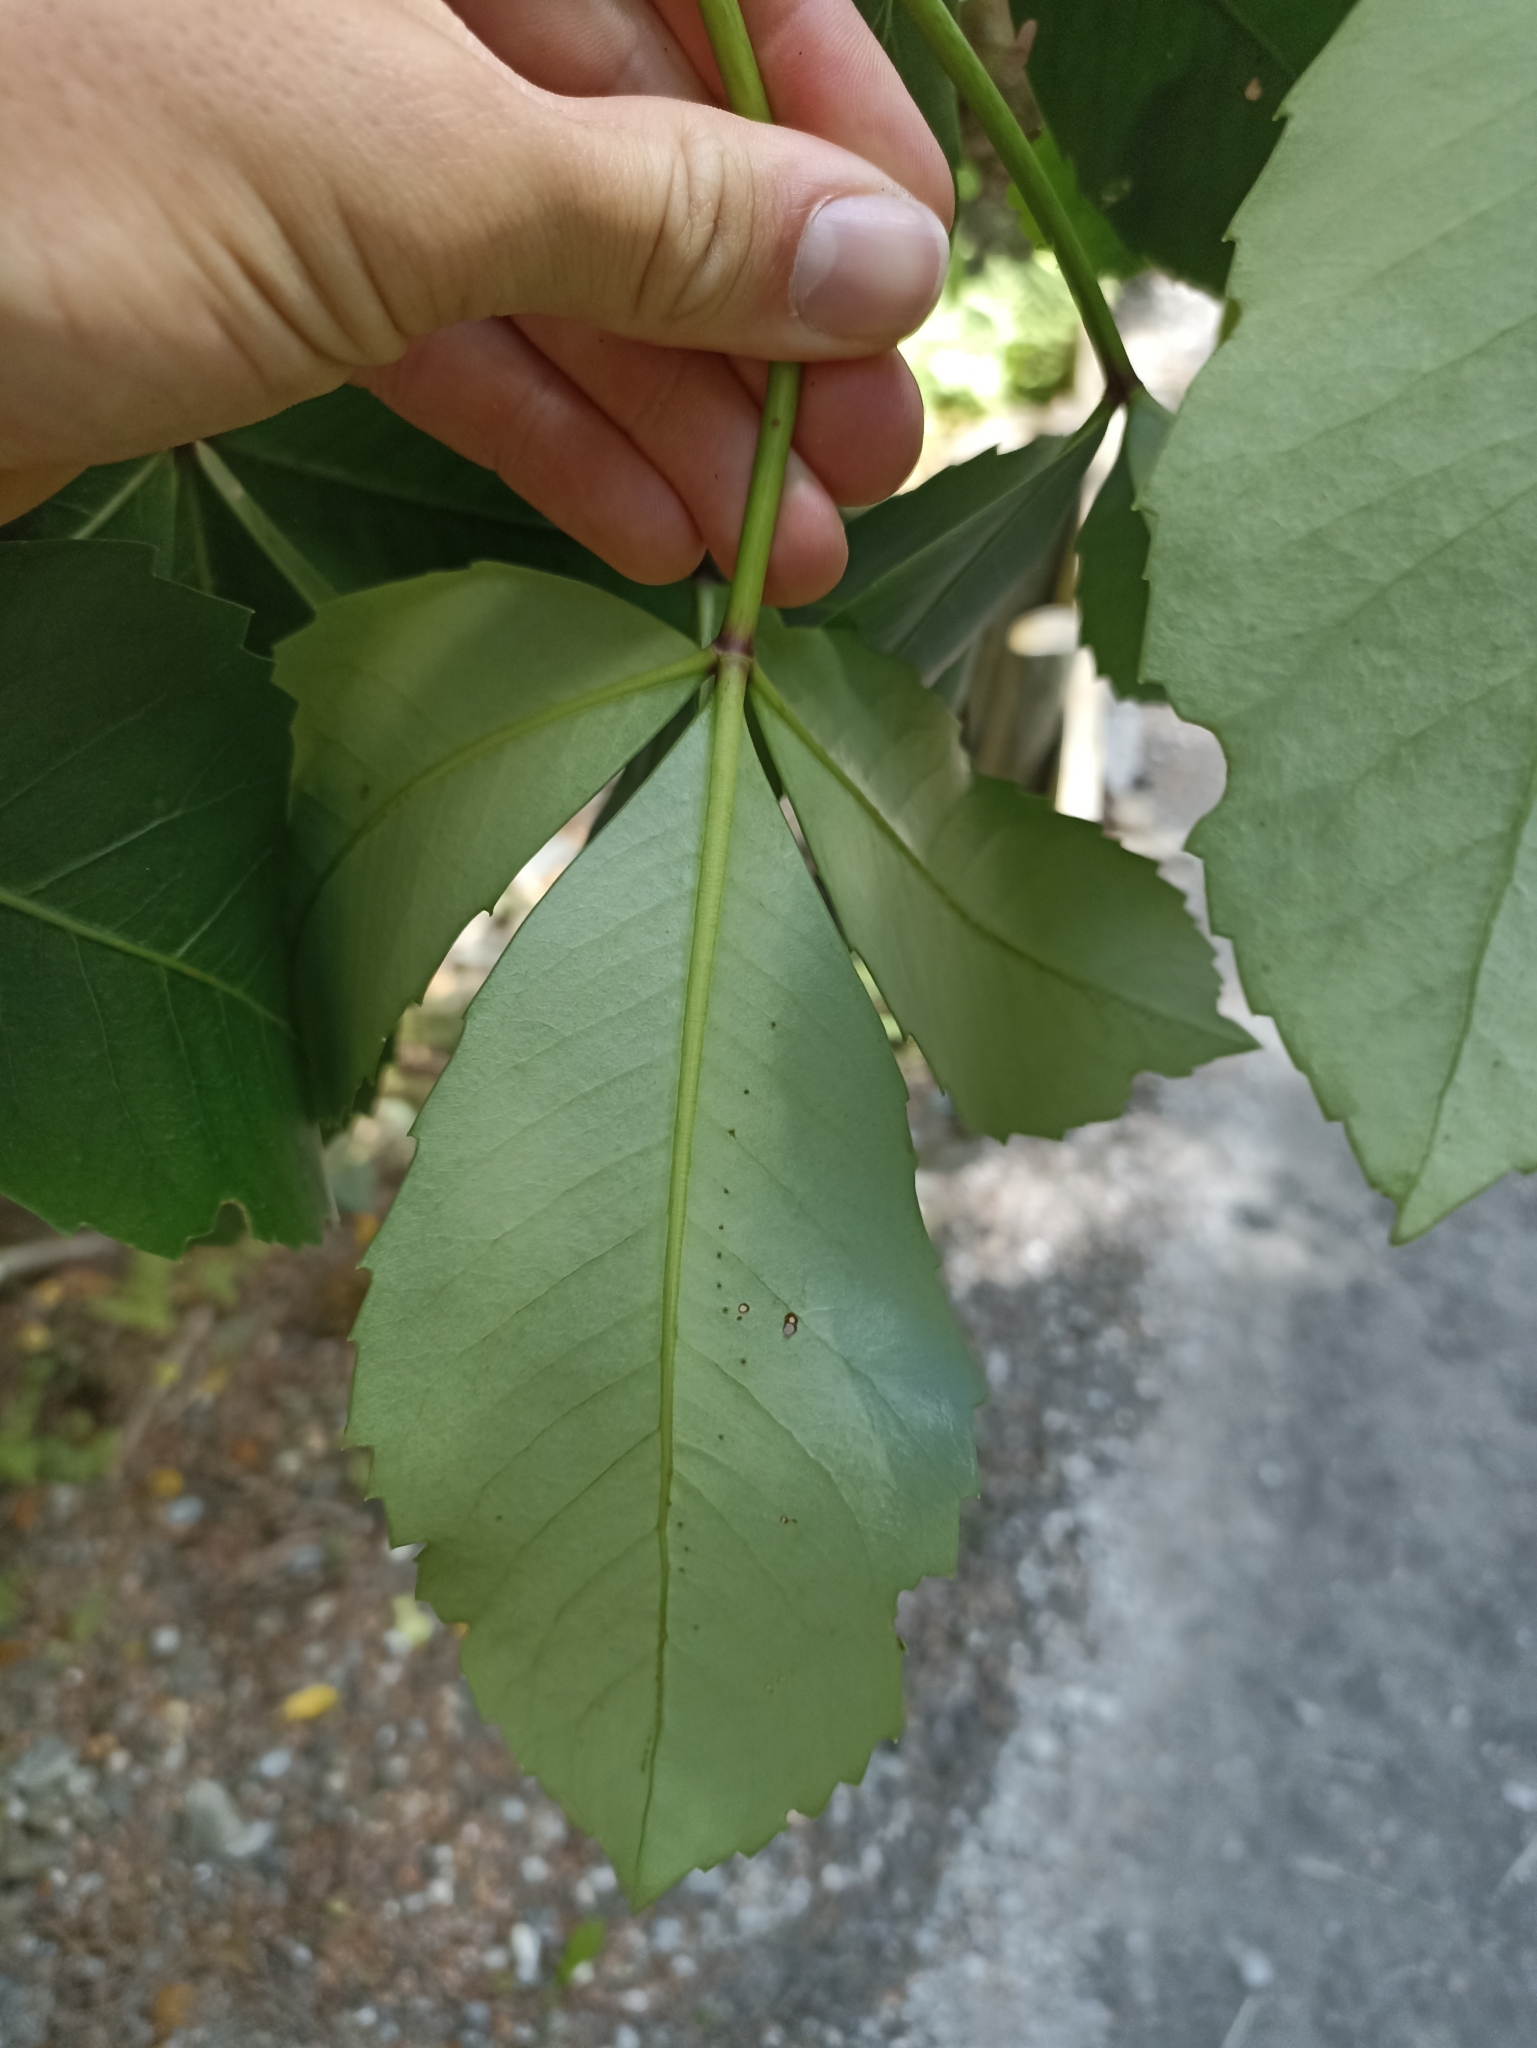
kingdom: Plantae
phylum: Tracheophyta
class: Magnoliopsida
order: Apiales
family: Araliaceae
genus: Neopanax
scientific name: Neopanax colensoi
